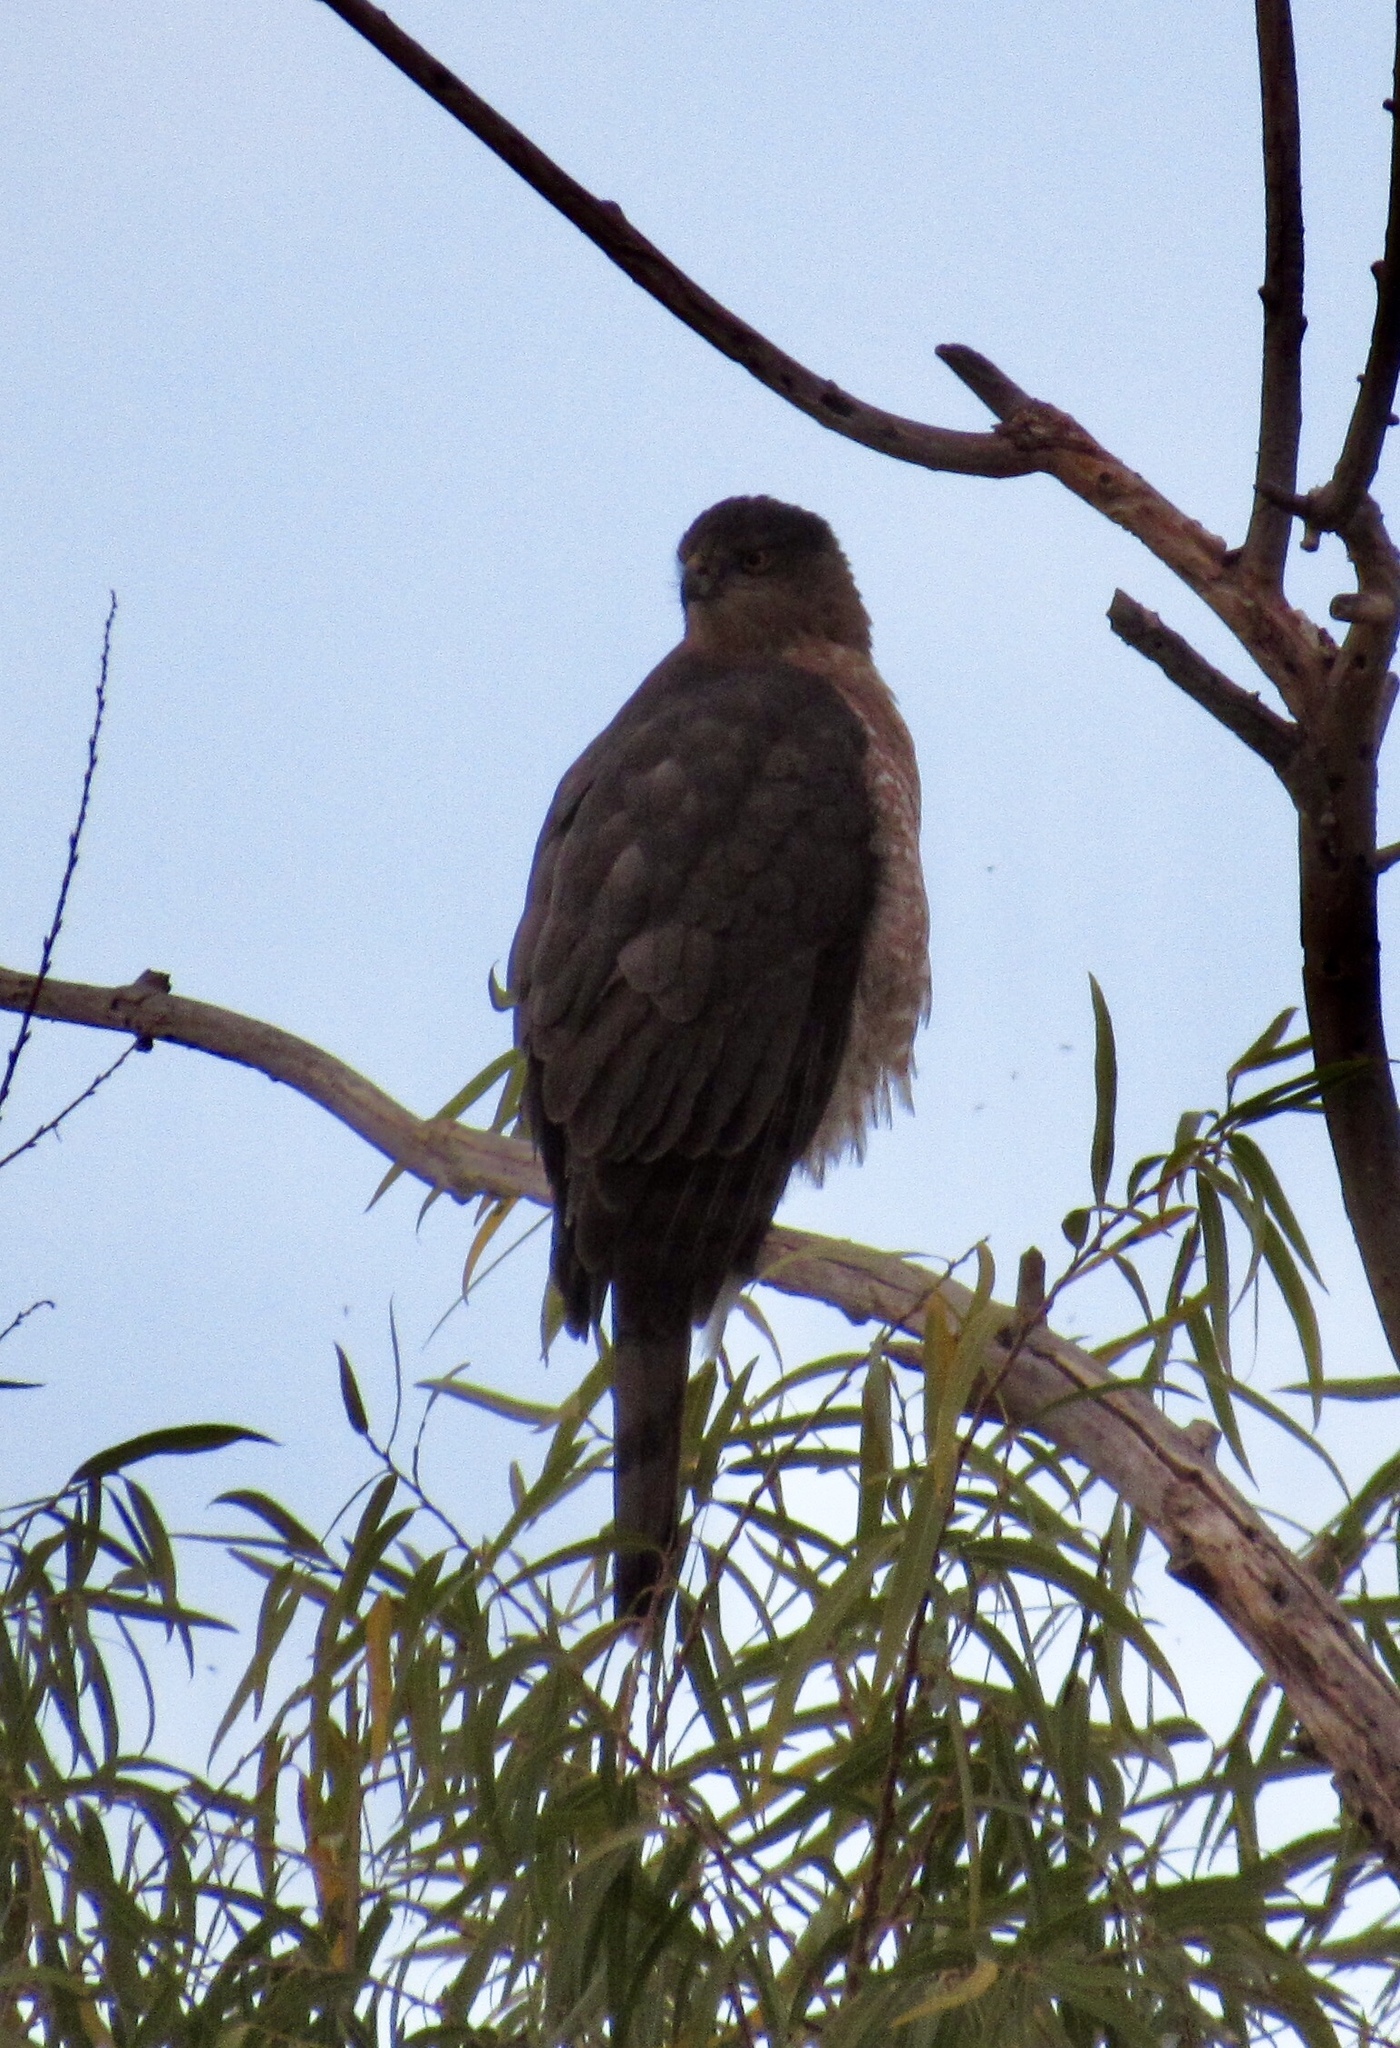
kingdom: Animalia
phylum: Chordata
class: Aves
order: Accipitriformes
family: Accipitridae
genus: Accipiter
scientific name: Accipiter cooperii
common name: Cooper's hawk
